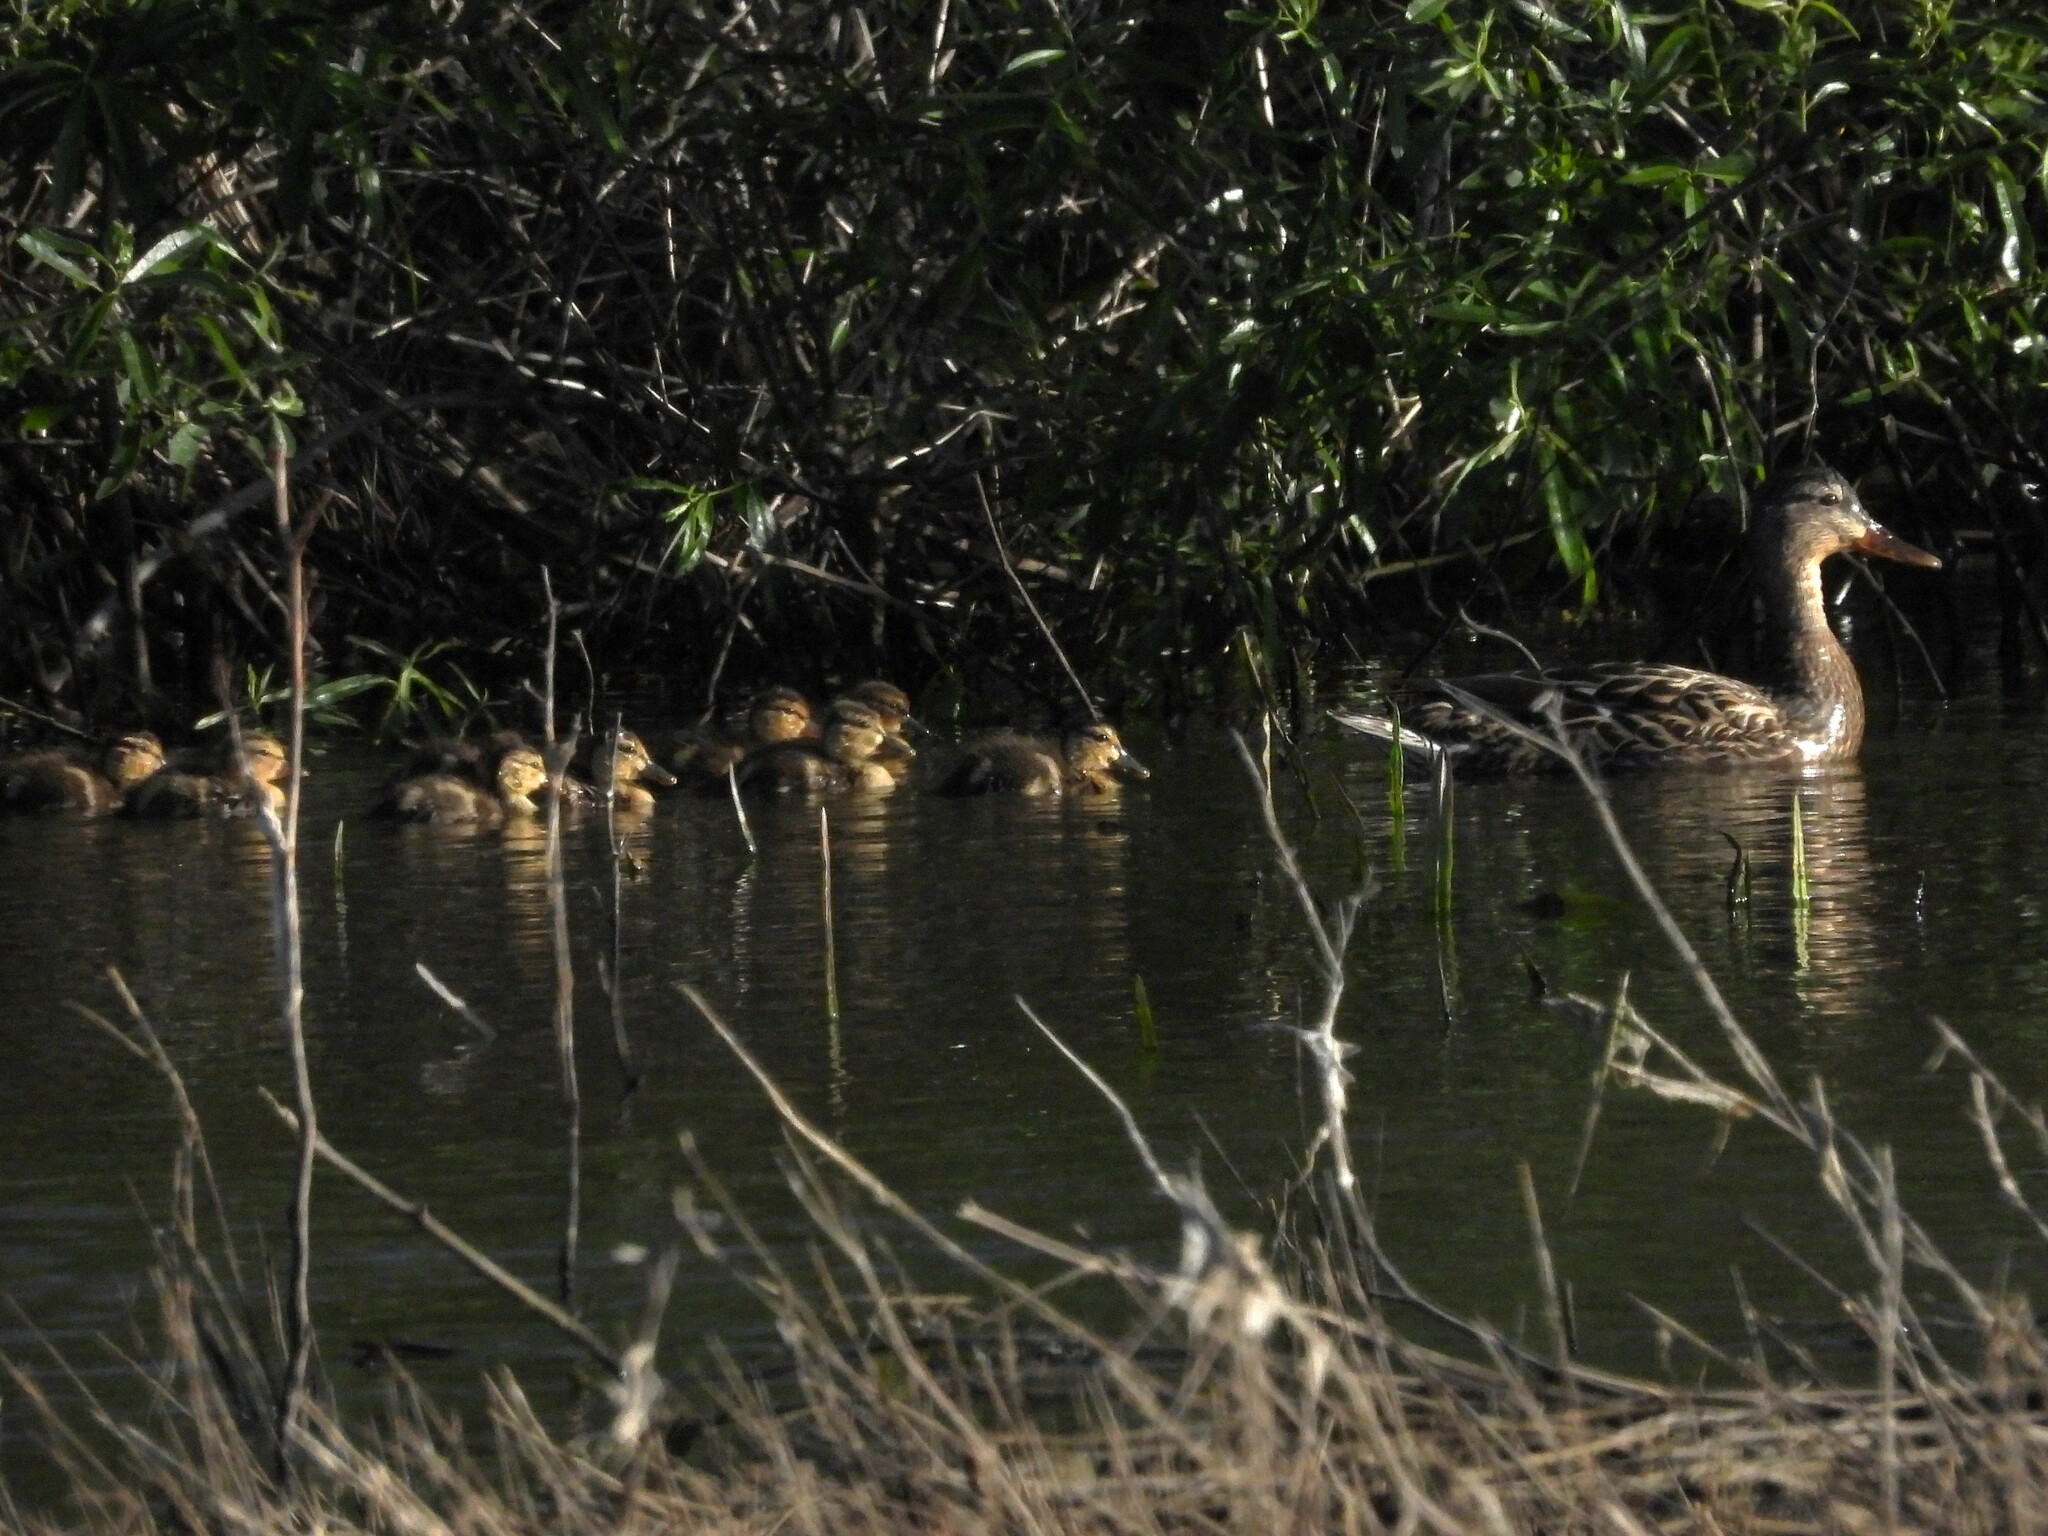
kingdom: Animalia
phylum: Chordata
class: Aves
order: Anseriformes
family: Anatidae
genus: Anas
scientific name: Anas platyrhynchos
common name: Mallard
